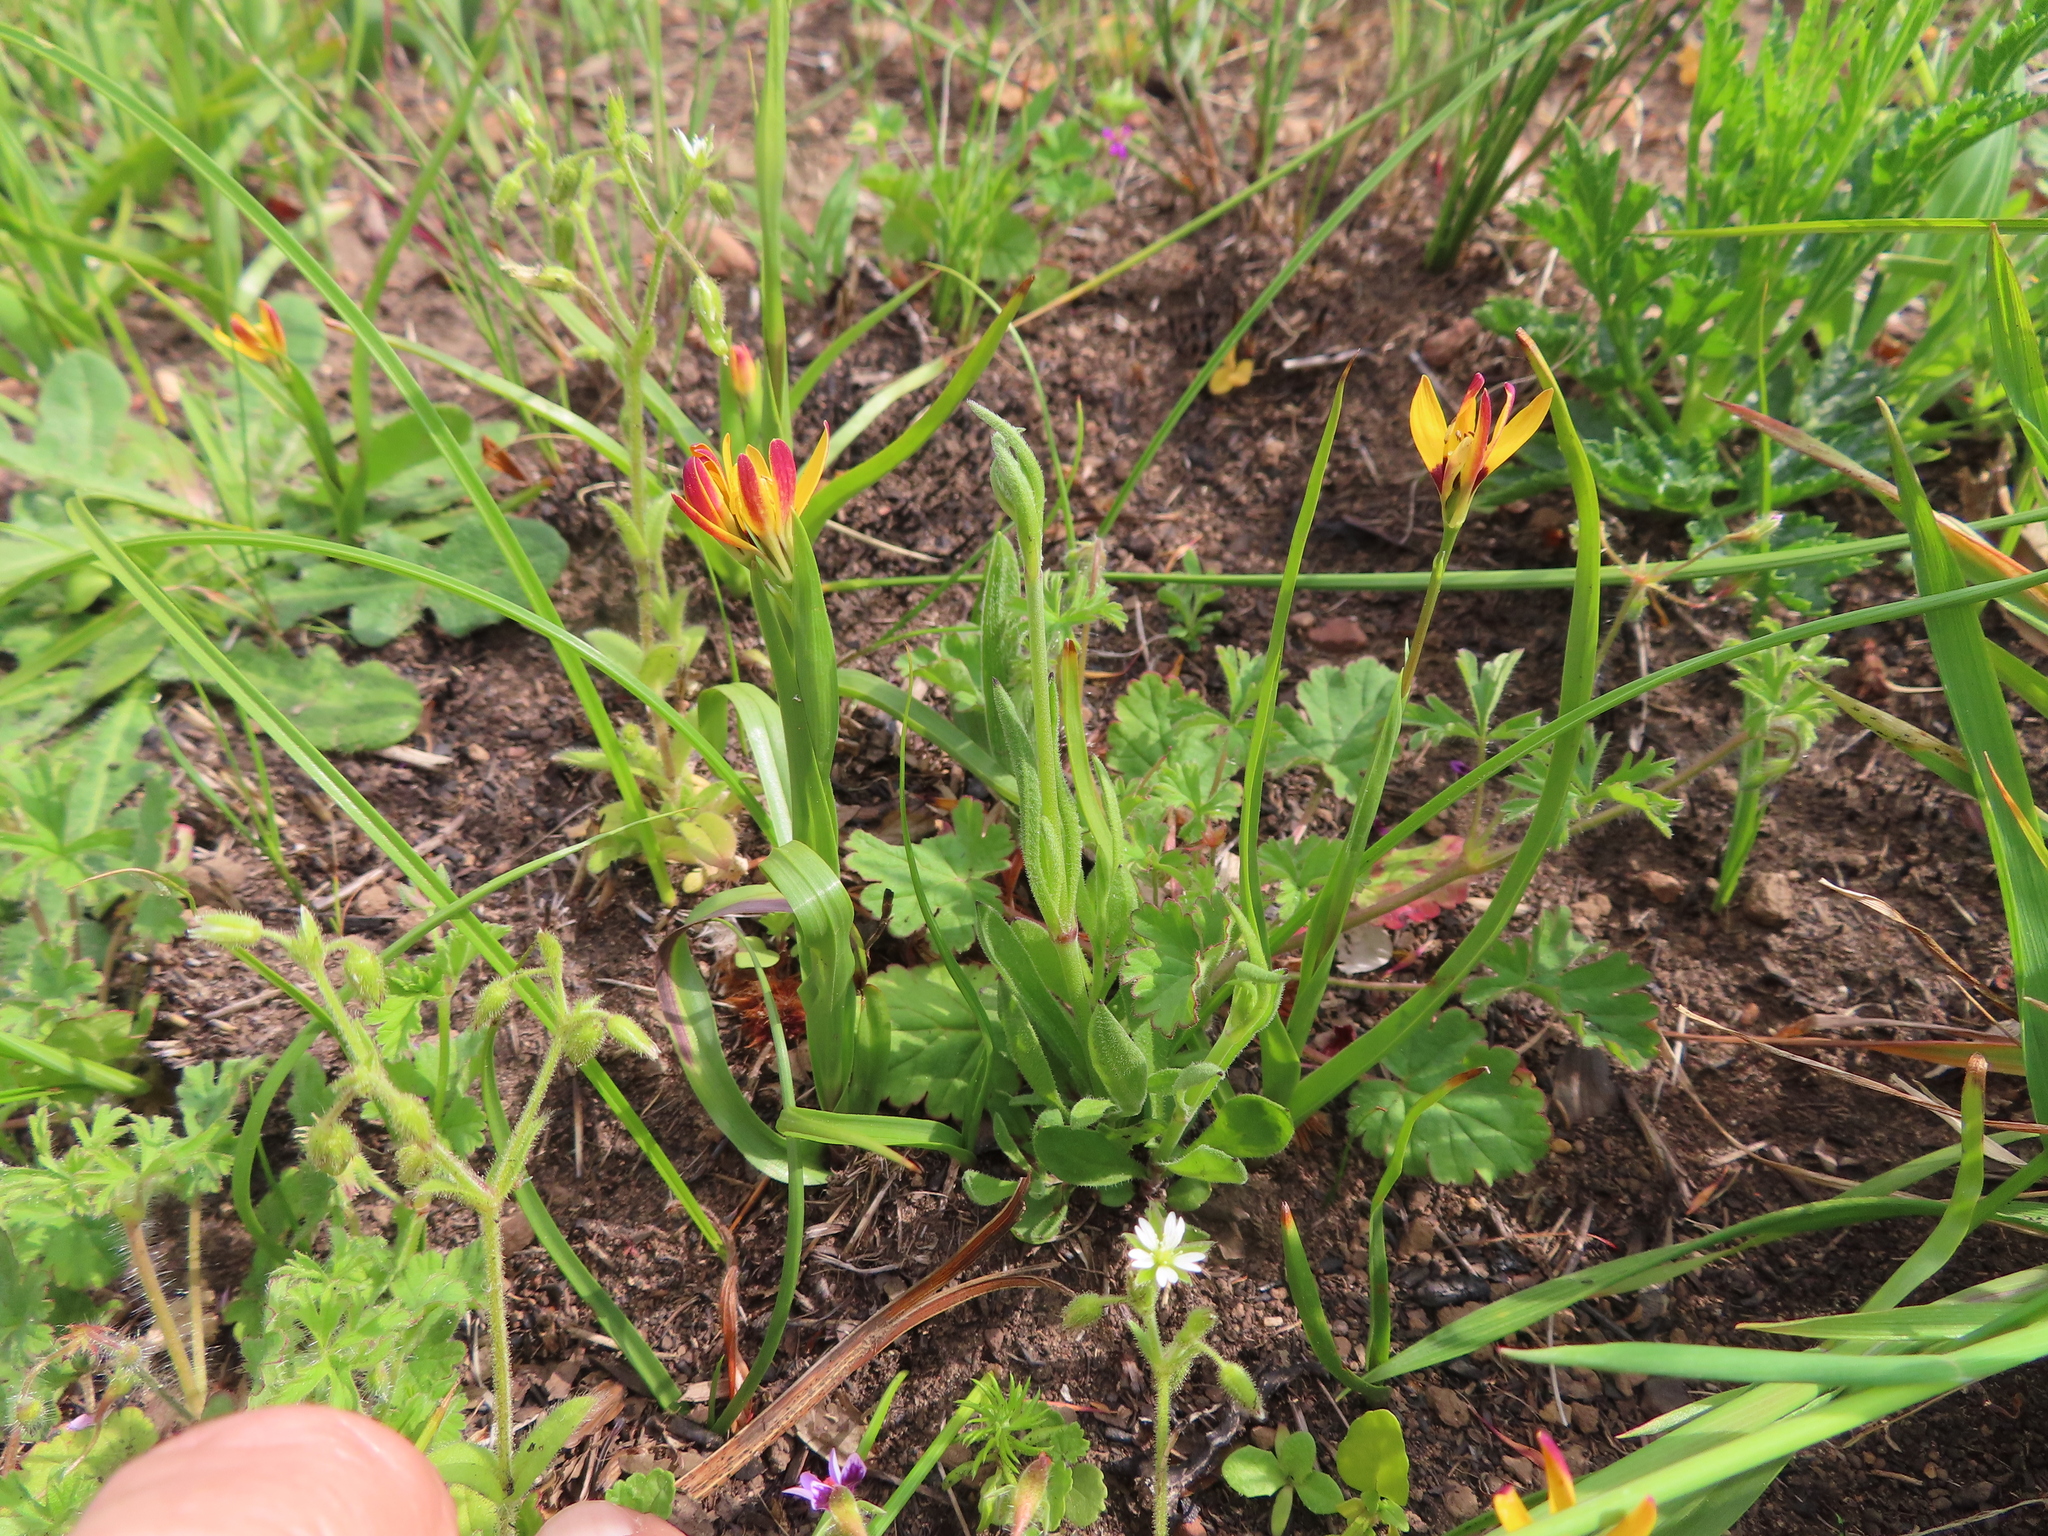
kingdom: Plantae
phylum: Tracheophyta
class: Liliopsida
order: Liliales
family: Colchicaceae
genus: Baeometra
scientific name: Baeometra uniflora
